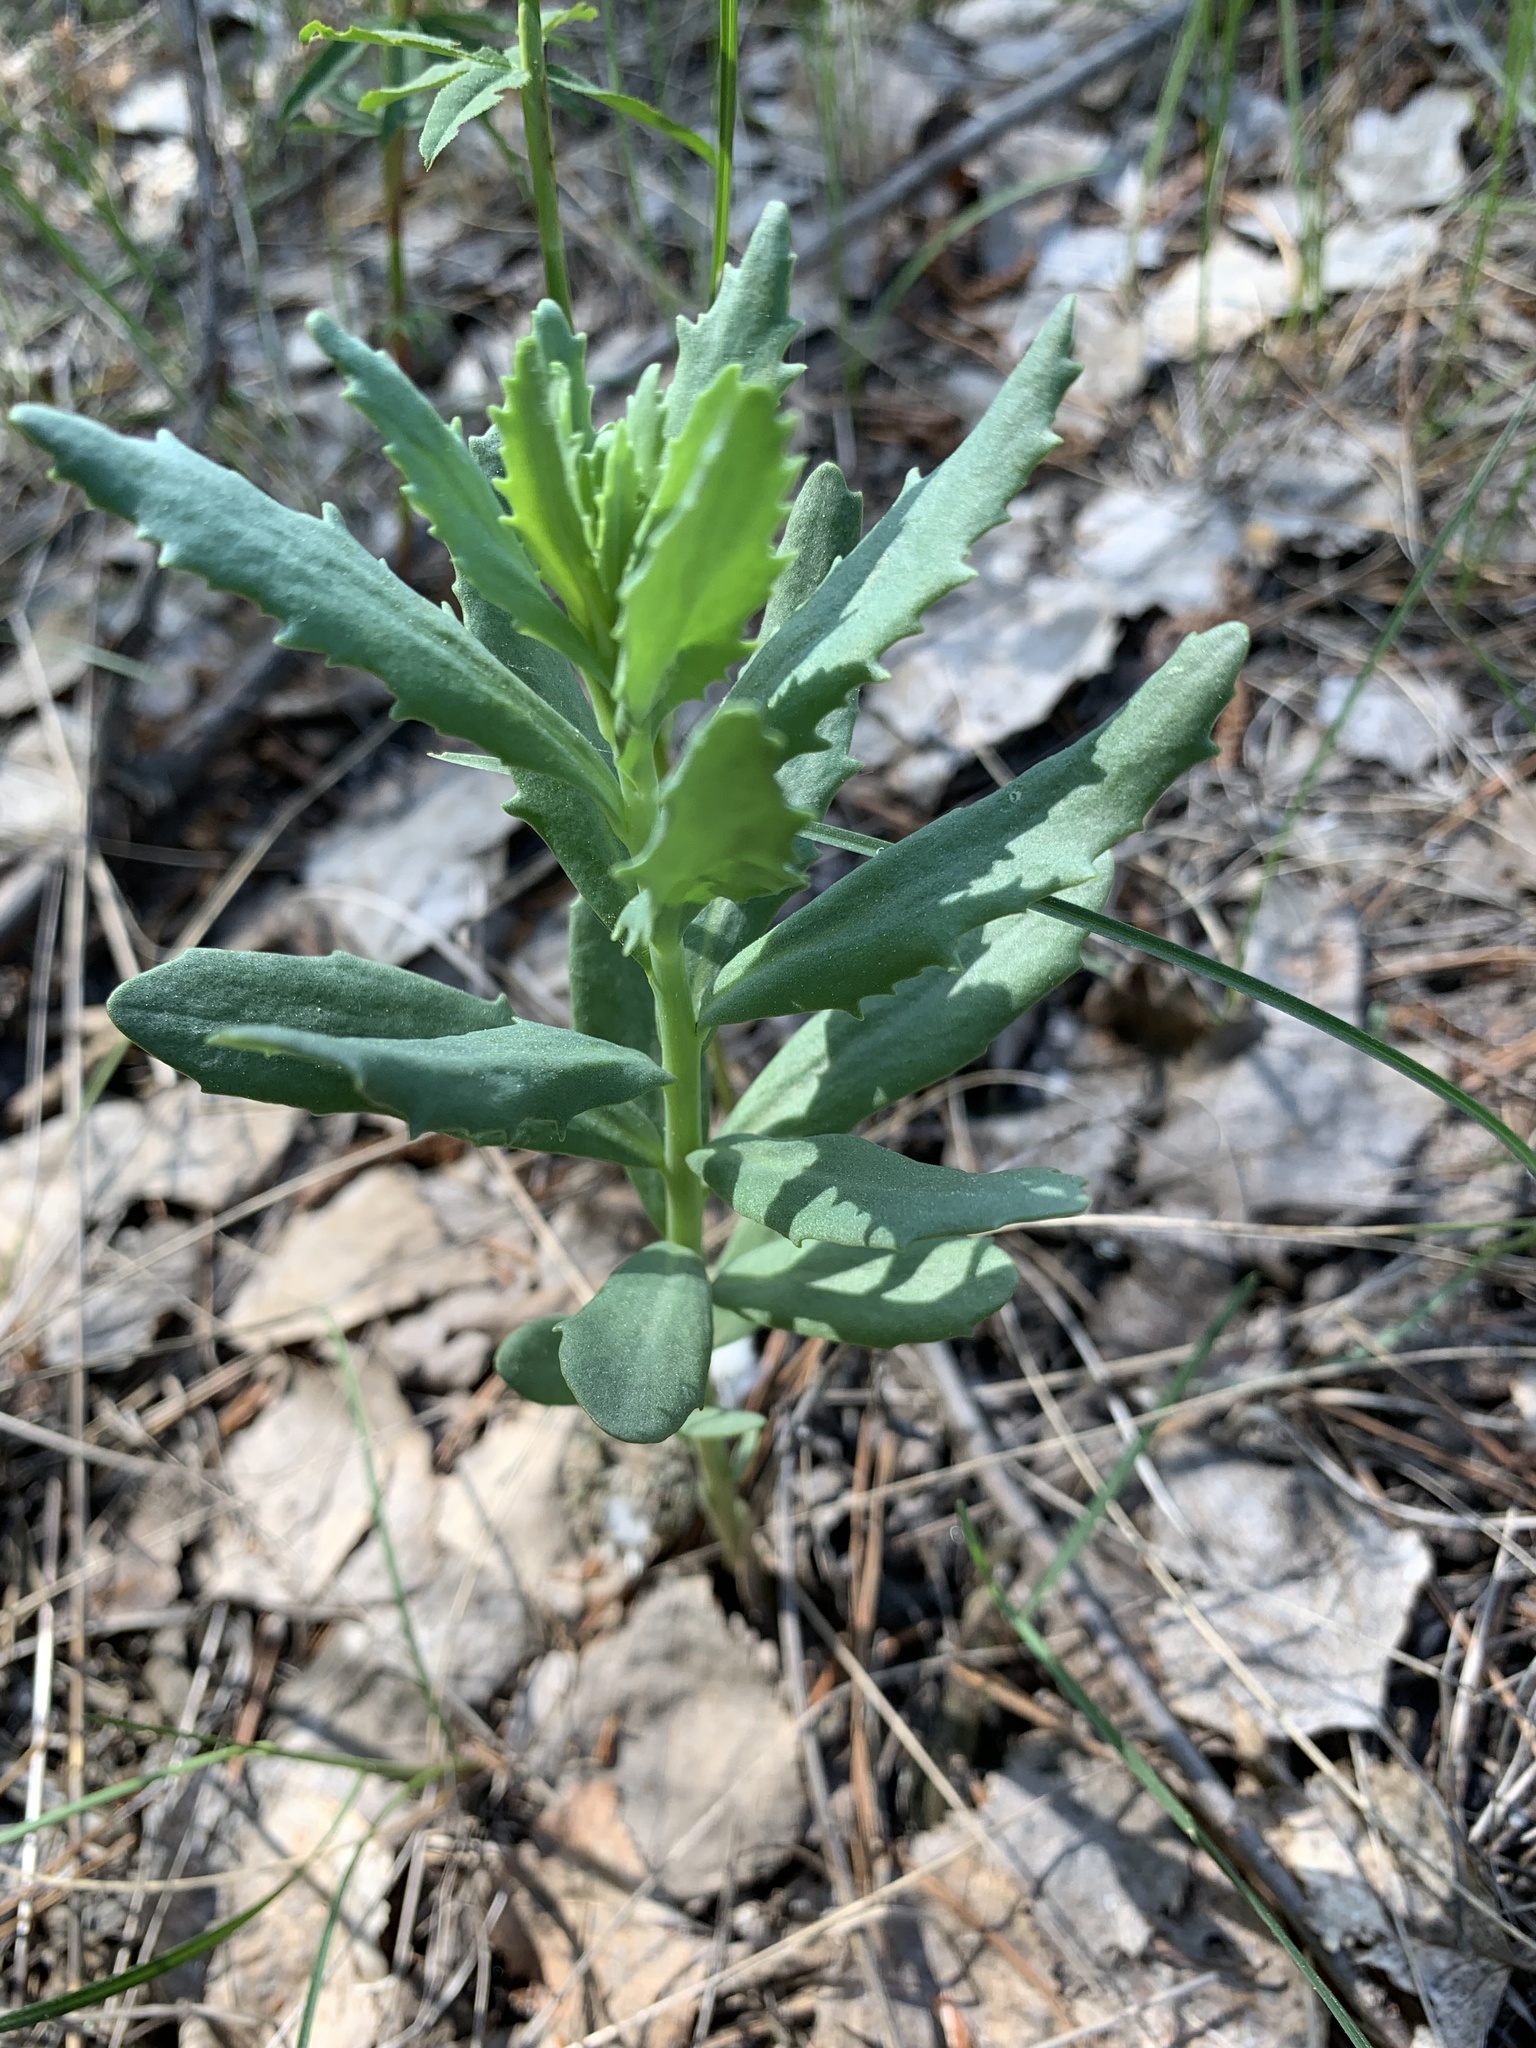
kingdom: Plantae
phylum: Tracheophyta
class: Magnoliopsida
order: Saxifragales
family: Crassulaceae
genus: Hylotelephium
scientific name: Hylotelephium telephium
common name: Live-forever
